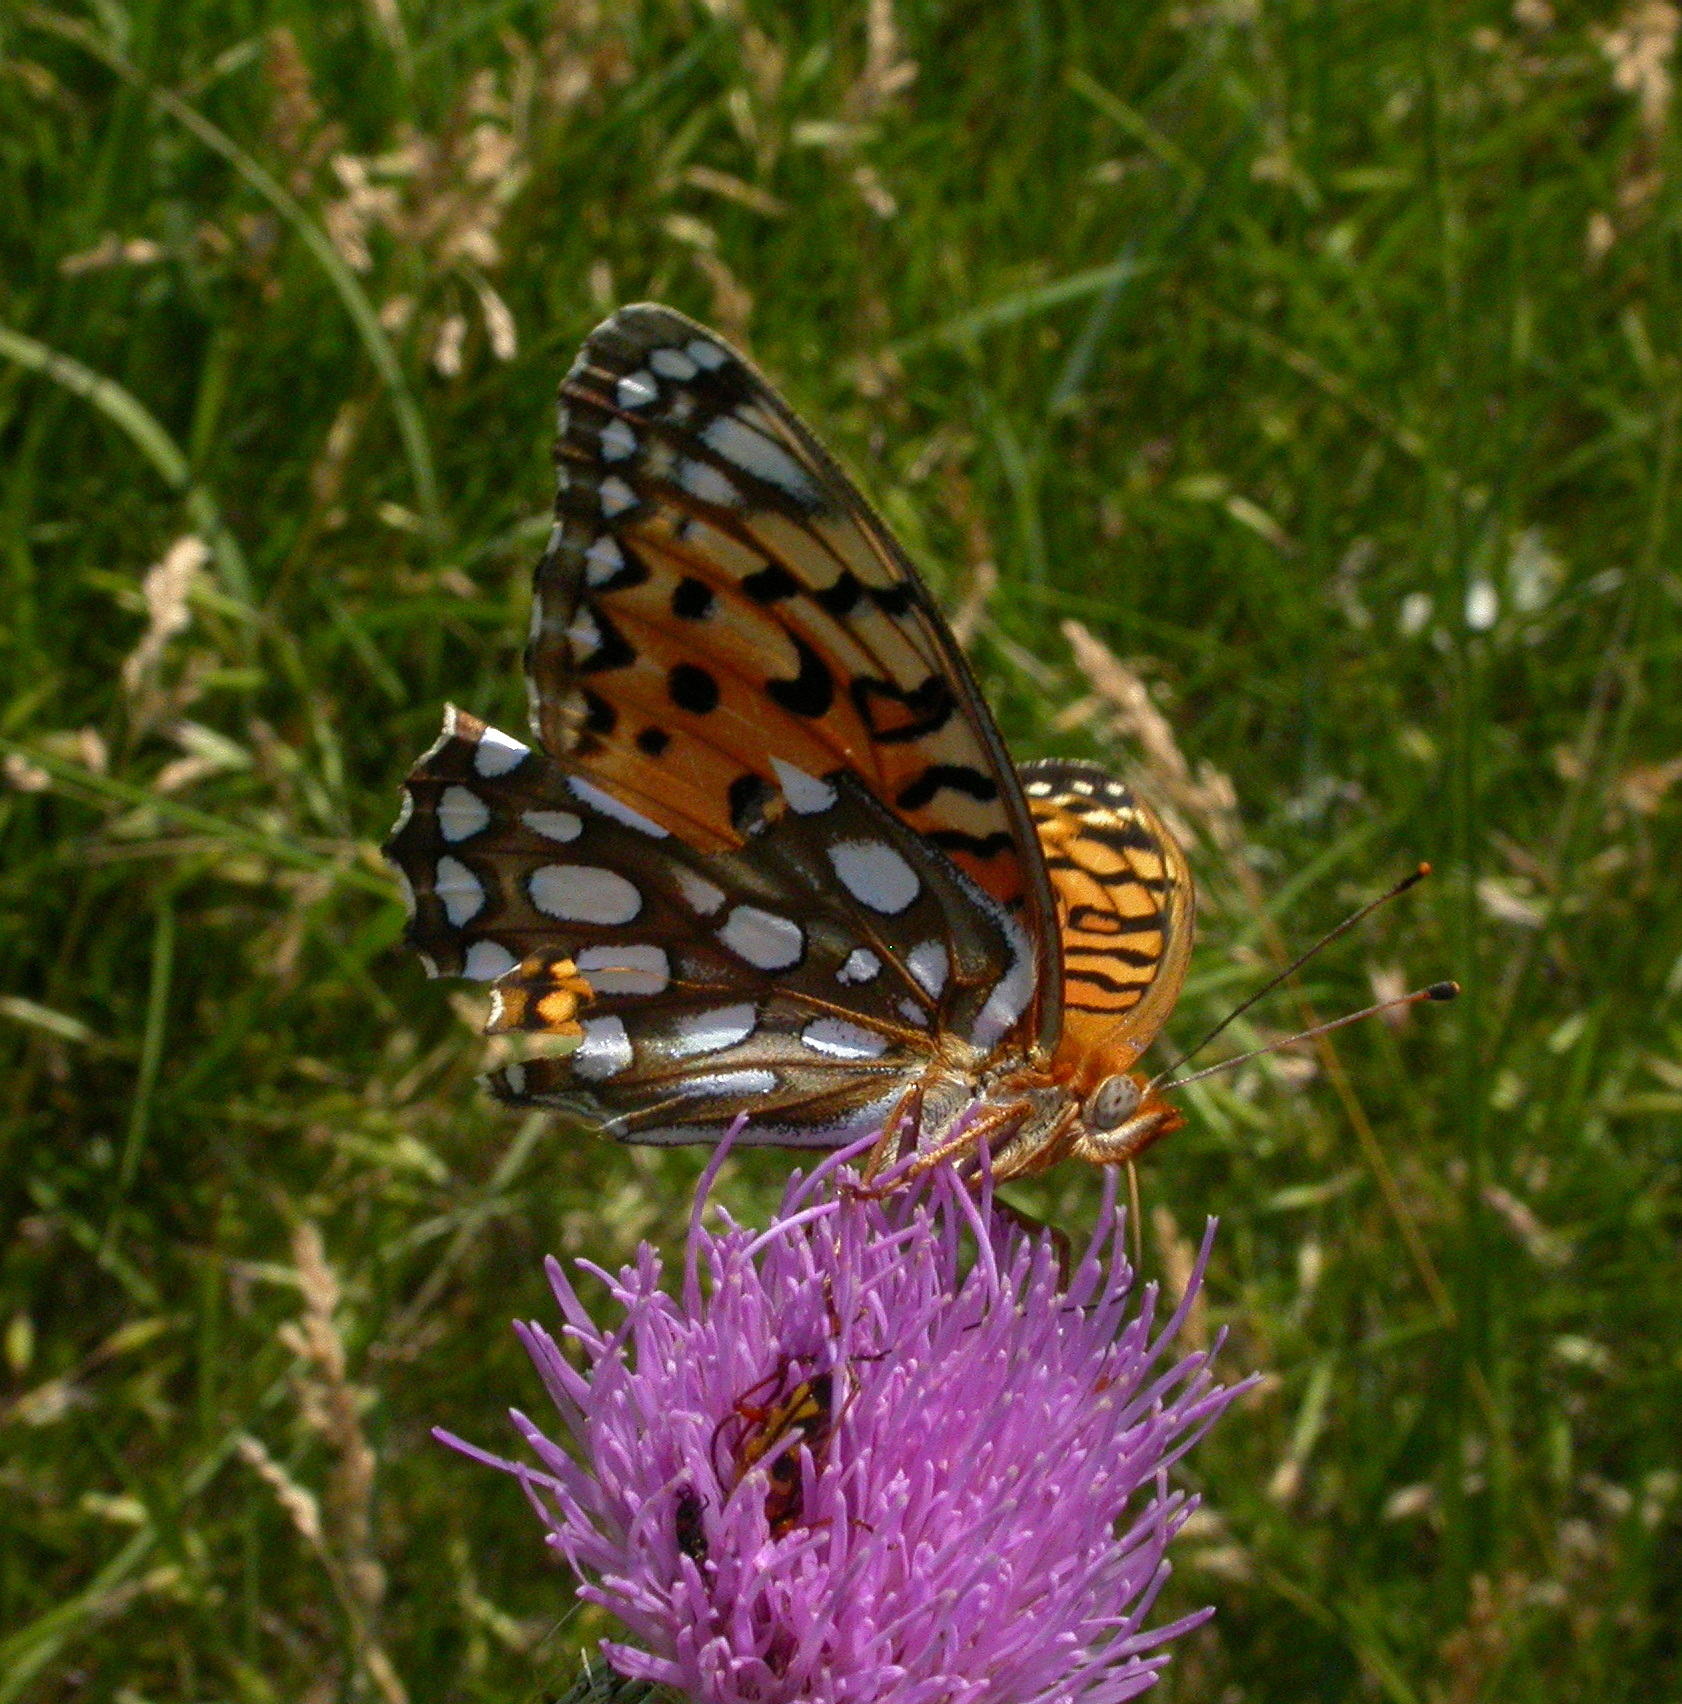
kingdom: Animalia
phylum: Arthropoda
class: Insecta
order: Lepidoptera
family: Nymphalidae
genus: Speyeria
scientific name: Speyeria edwardsii
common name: Edwards' fritillary
